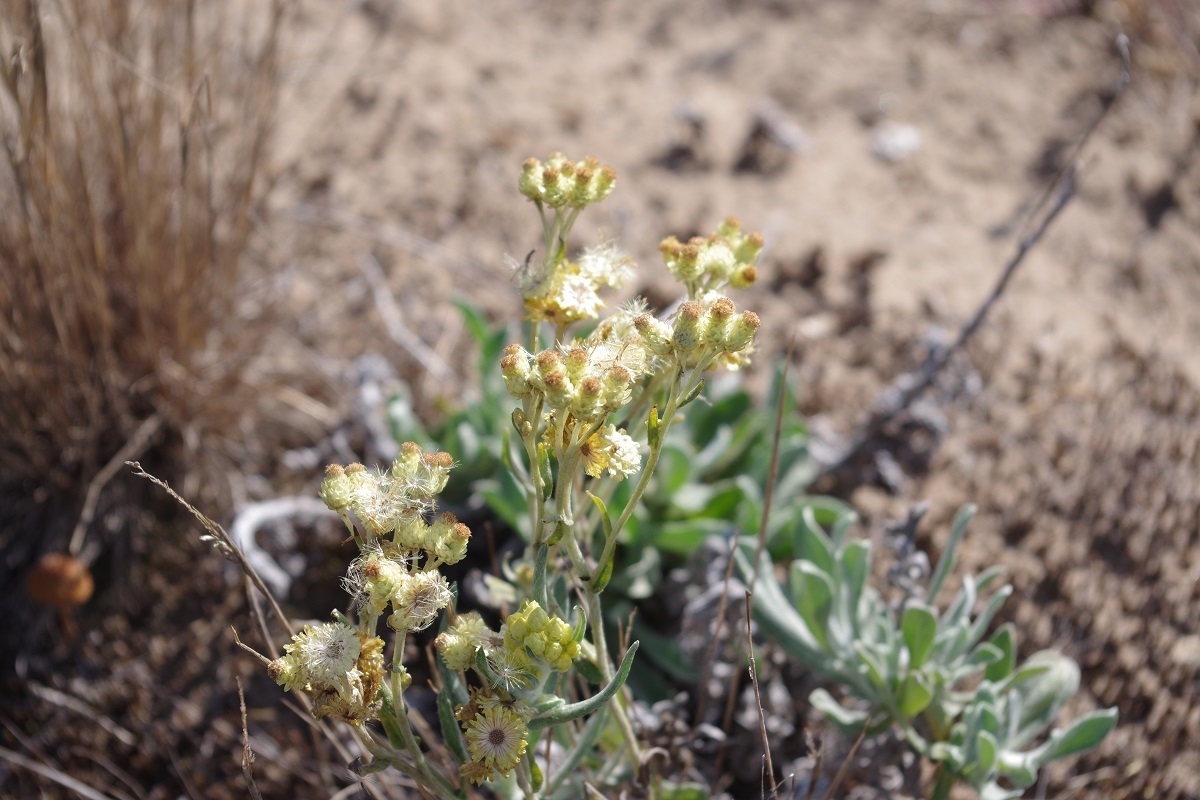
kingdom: Plantae
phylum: Tracheophyta
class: Magnoliopsida
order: Asterales
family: Asteraceae
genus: Helichrysum
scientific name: Helichrysum arenarium
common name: Strawflower
